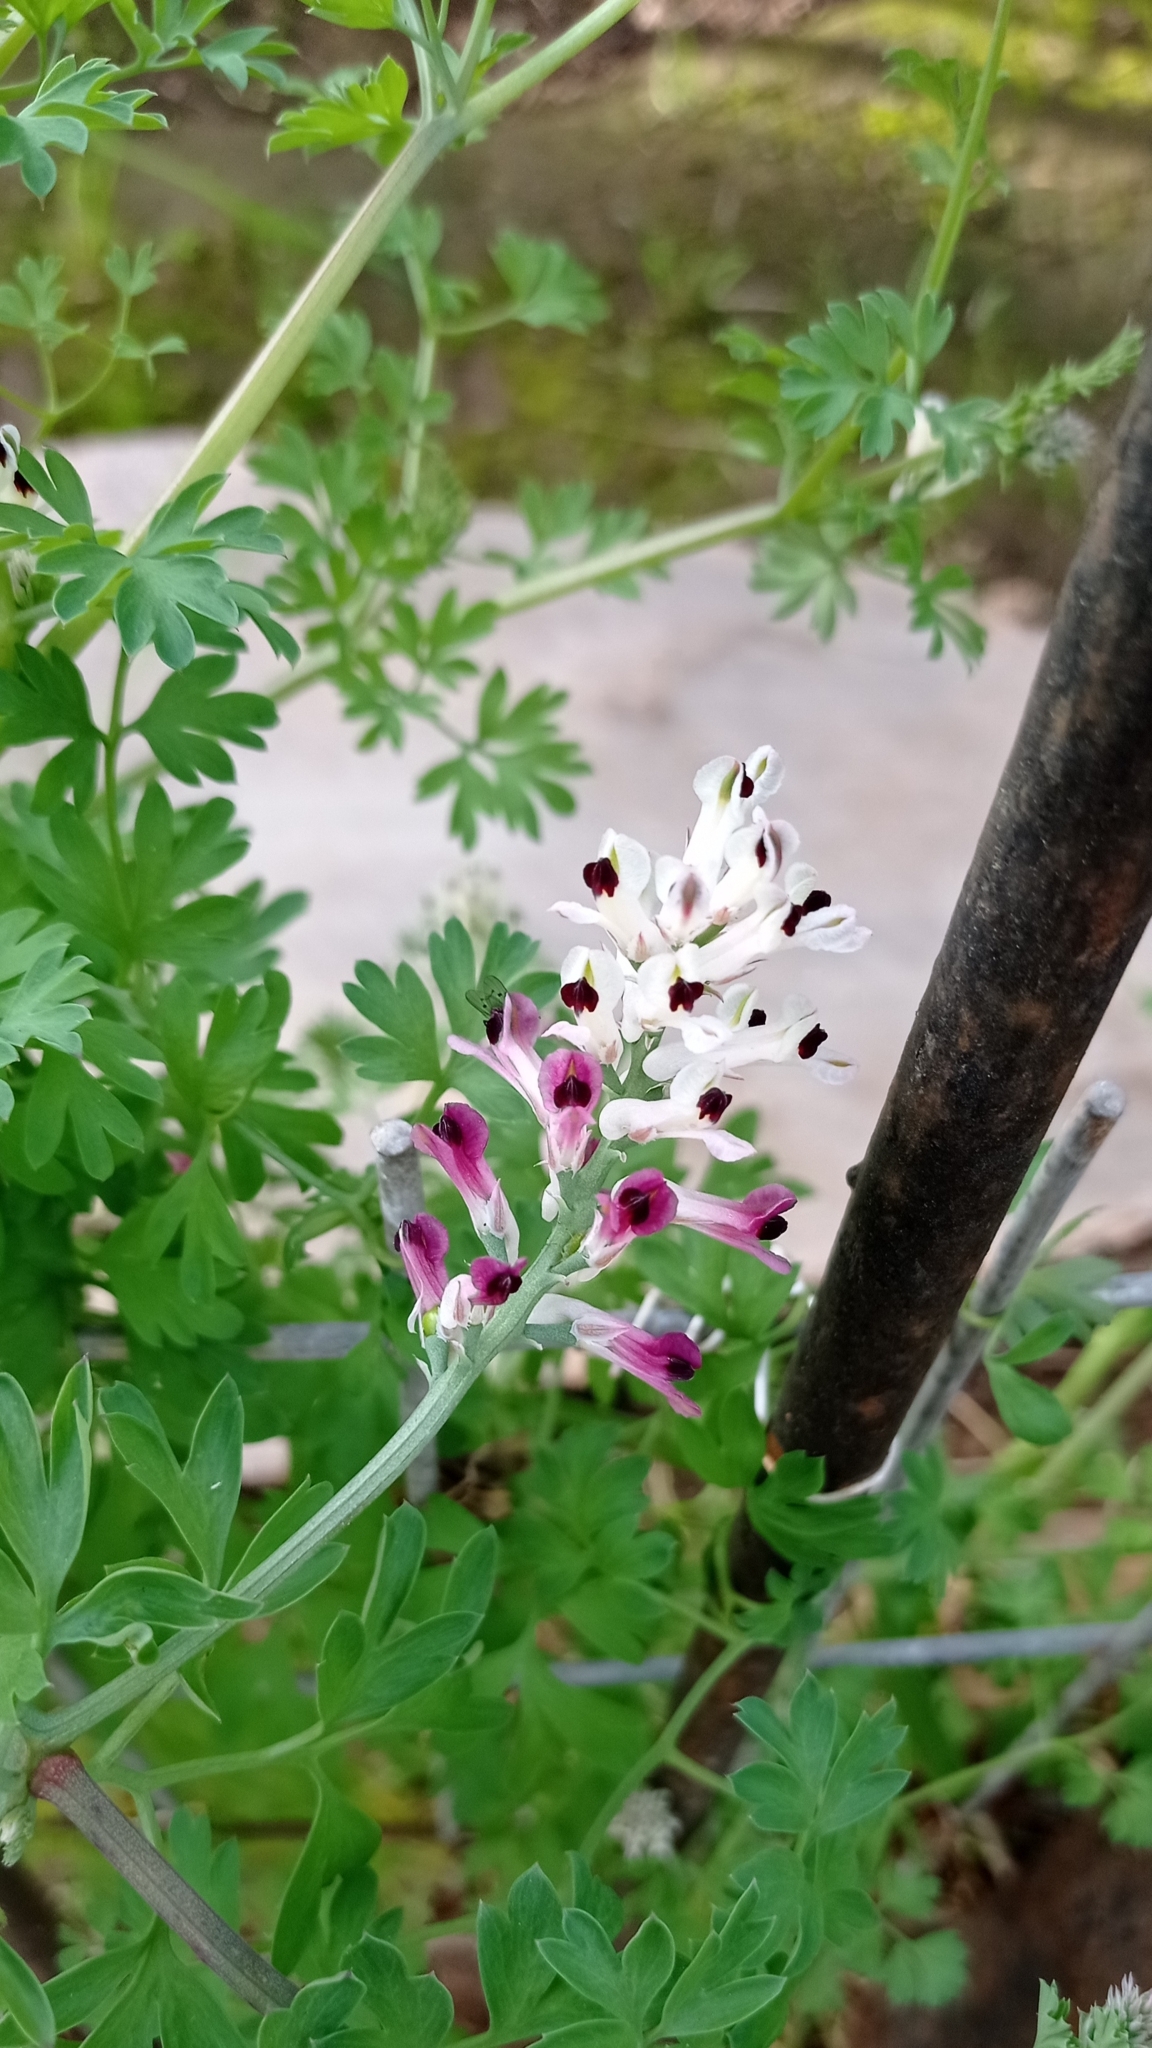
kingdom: Plantae
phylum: Tracheophyta
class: Magnoliopsida
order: Ranunculales
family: Papaveraceae
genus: Fumaria
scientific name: Fumaria agraria
